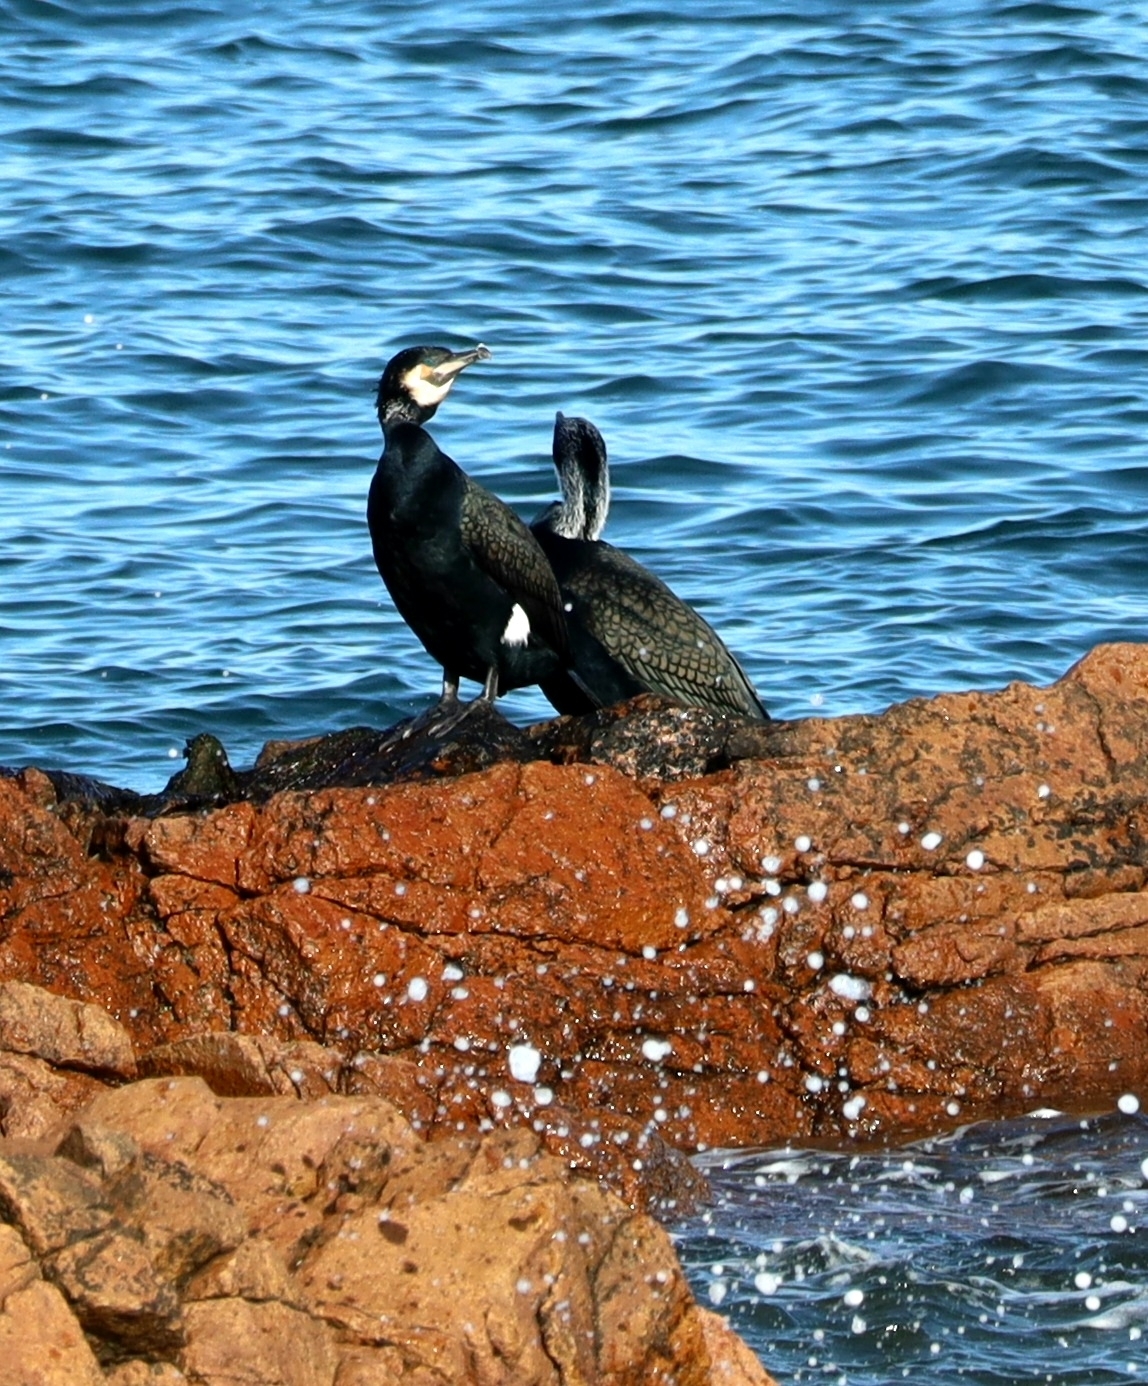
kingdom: Animalia
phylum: Chordata
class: Aves
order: Suliformes
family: Phalacrocoracidae
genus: Phalacrocorax
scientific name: Phalacrocorax carbo
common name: Great cormorant
